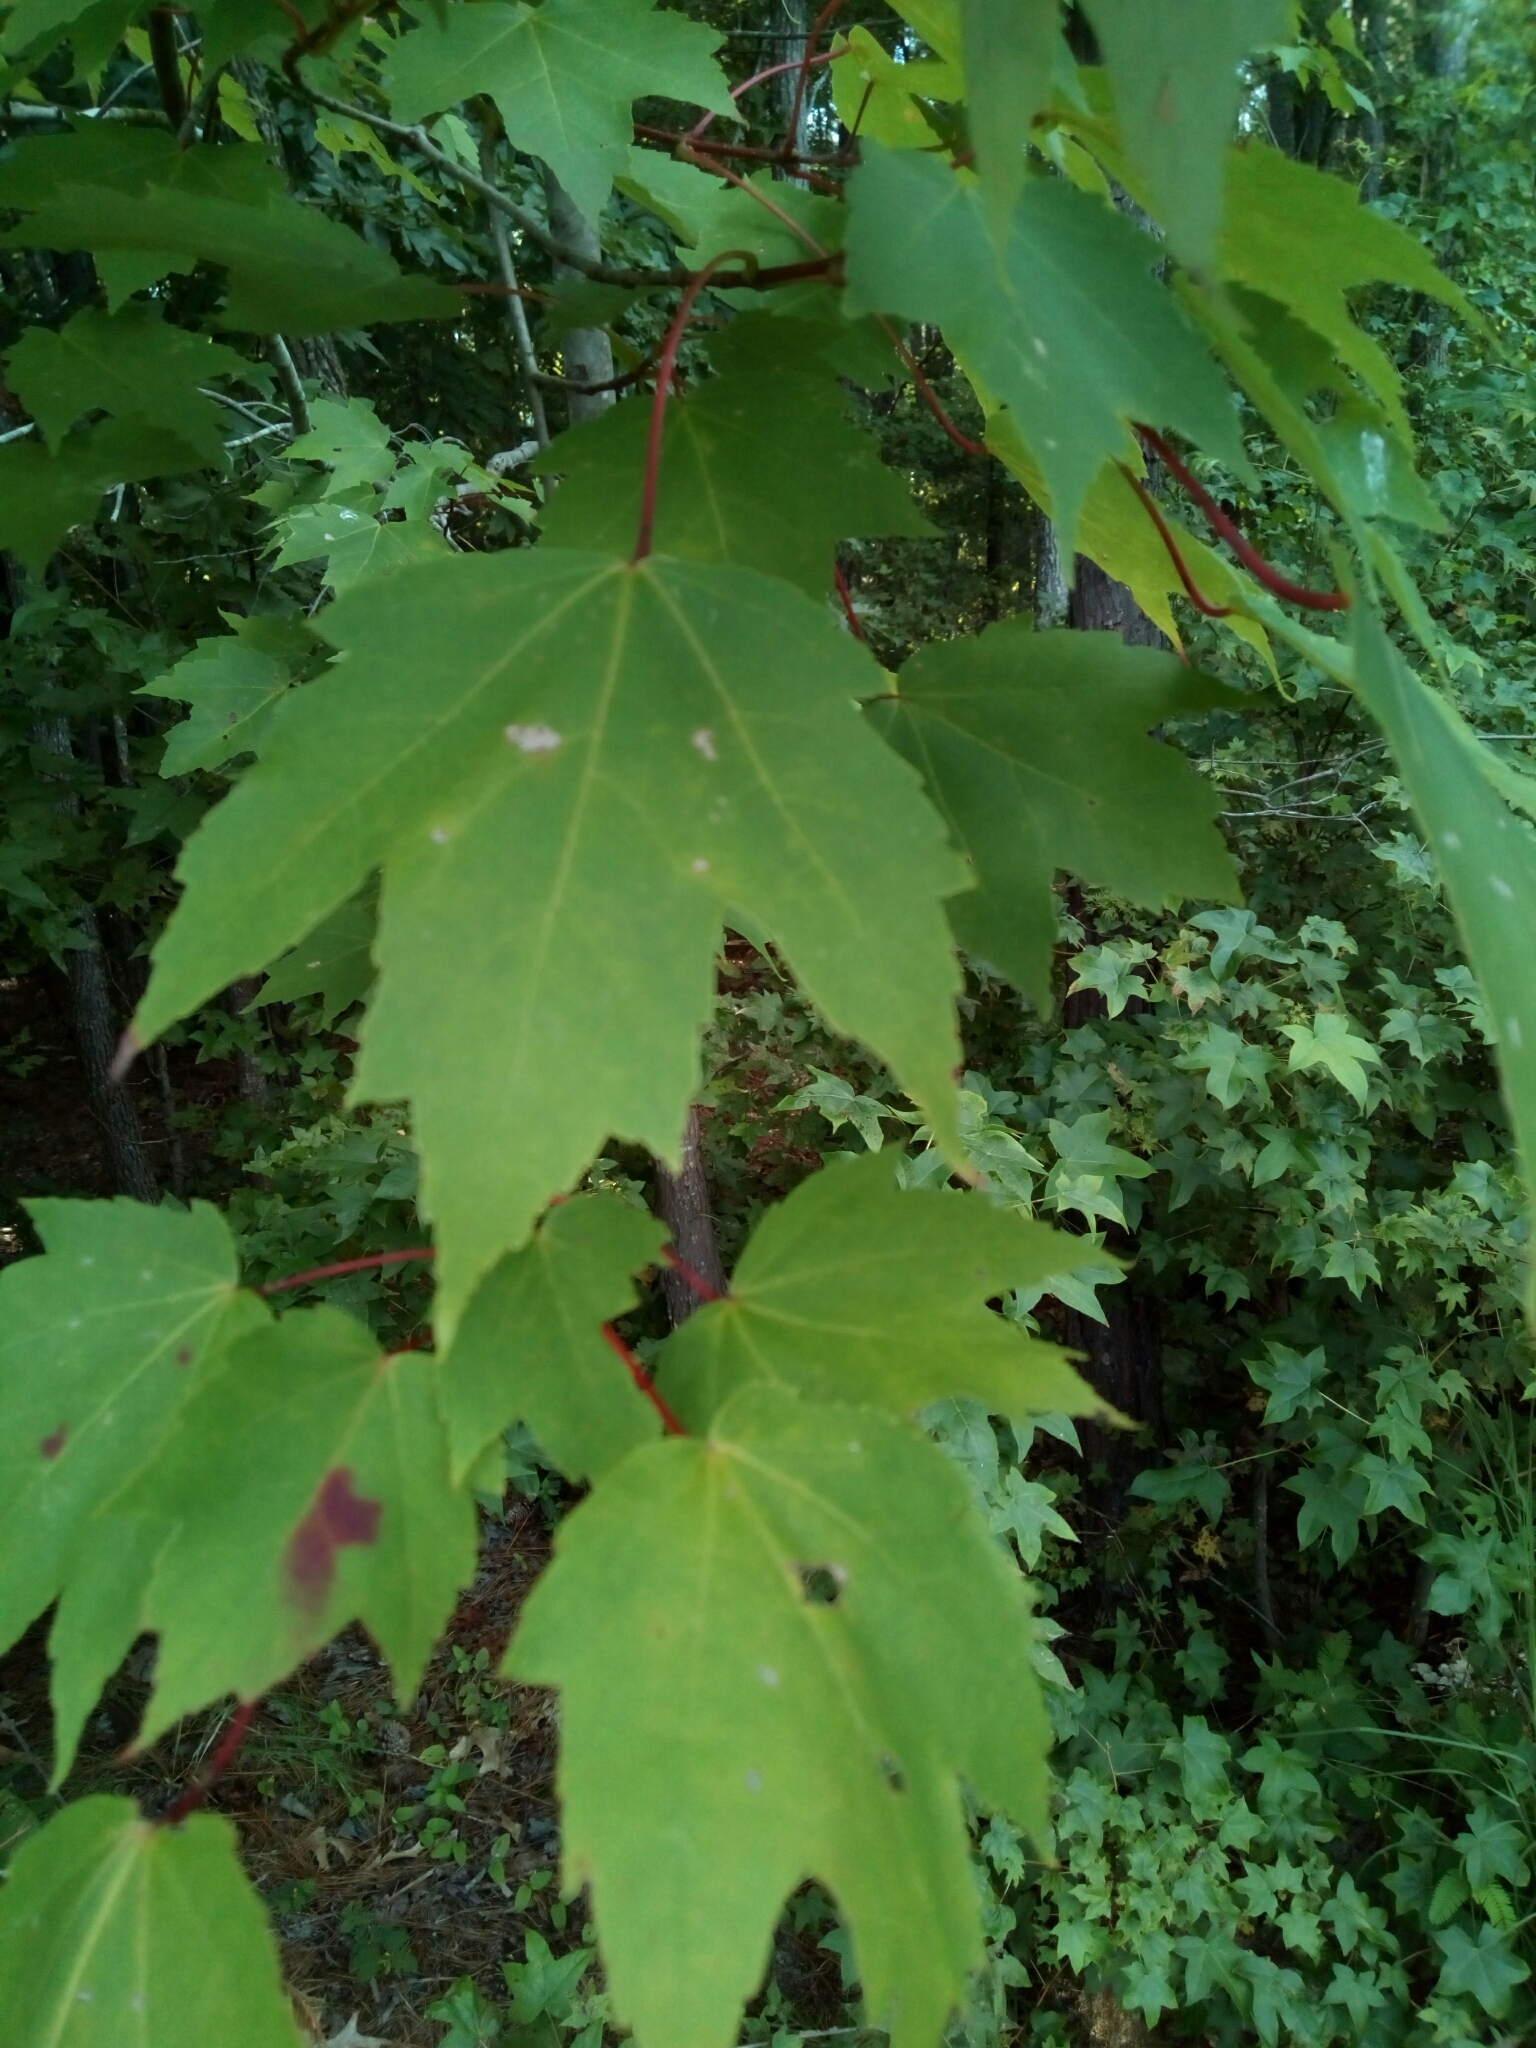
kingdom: Plantae
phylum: Tracheophyta
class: Magnoliopsida
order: Sapindales
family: Sapindaceae
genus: Acer
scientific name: Acer rubrum
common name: Red maple
